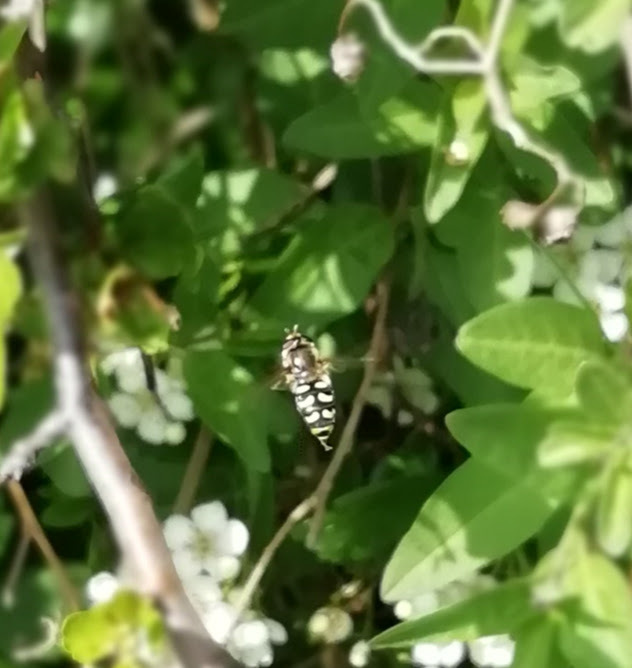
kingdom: Animalia
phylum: Arthropoda
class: Insecta
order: Diptera
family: Syrphidae
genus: Eupeodes
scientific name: Eupeodes
